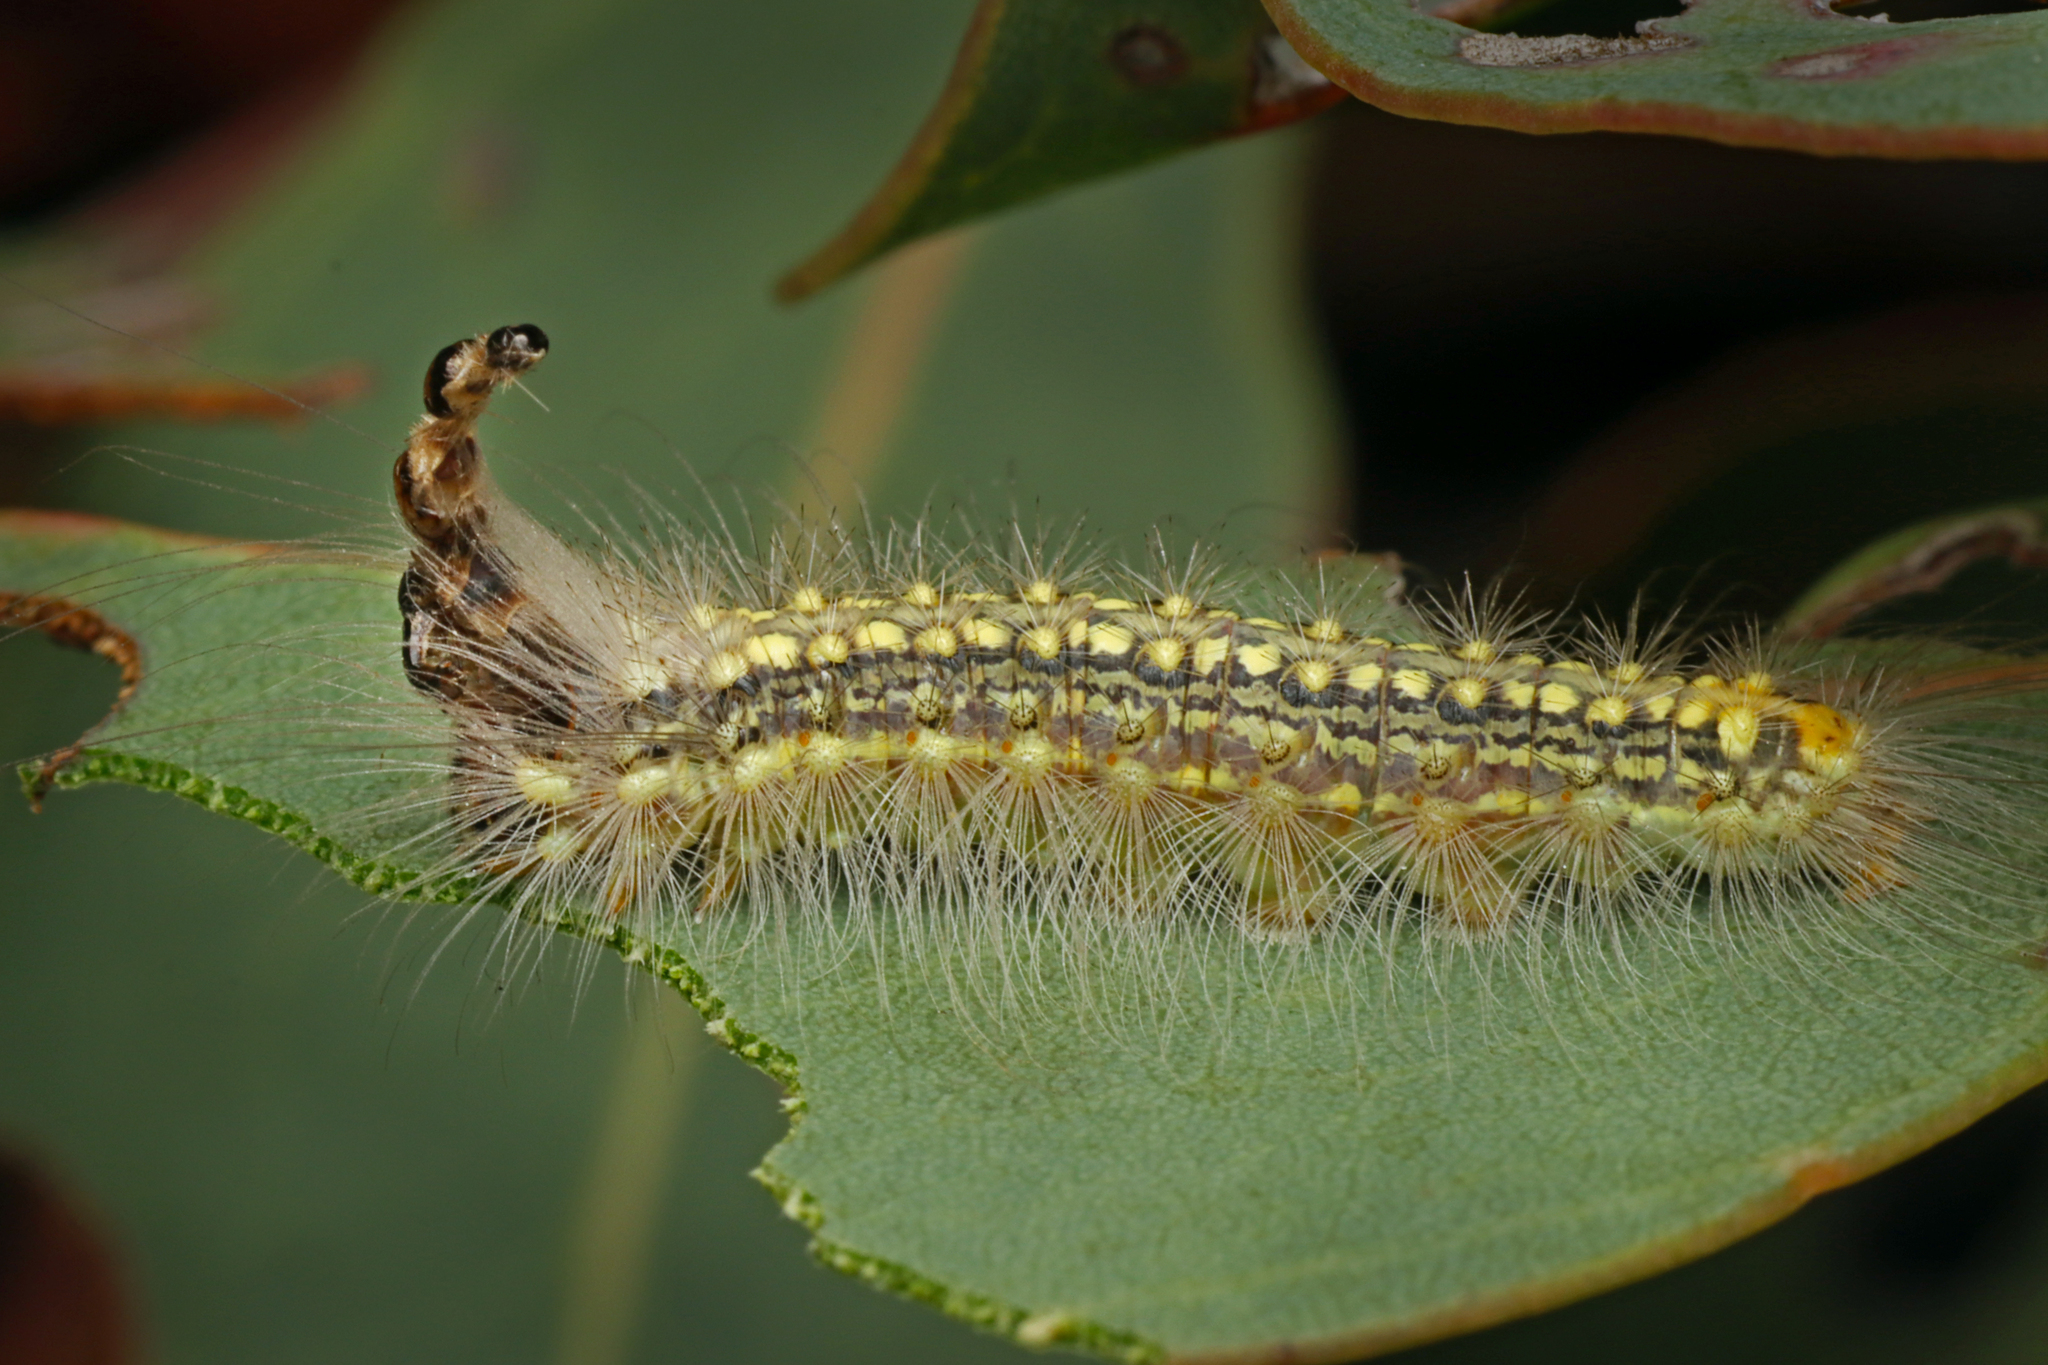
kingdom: Animalia
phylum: Arthropoda
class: Insecta
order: Lepidoptera
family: Nolidae
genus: Uraba
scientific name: Uraba lugens
